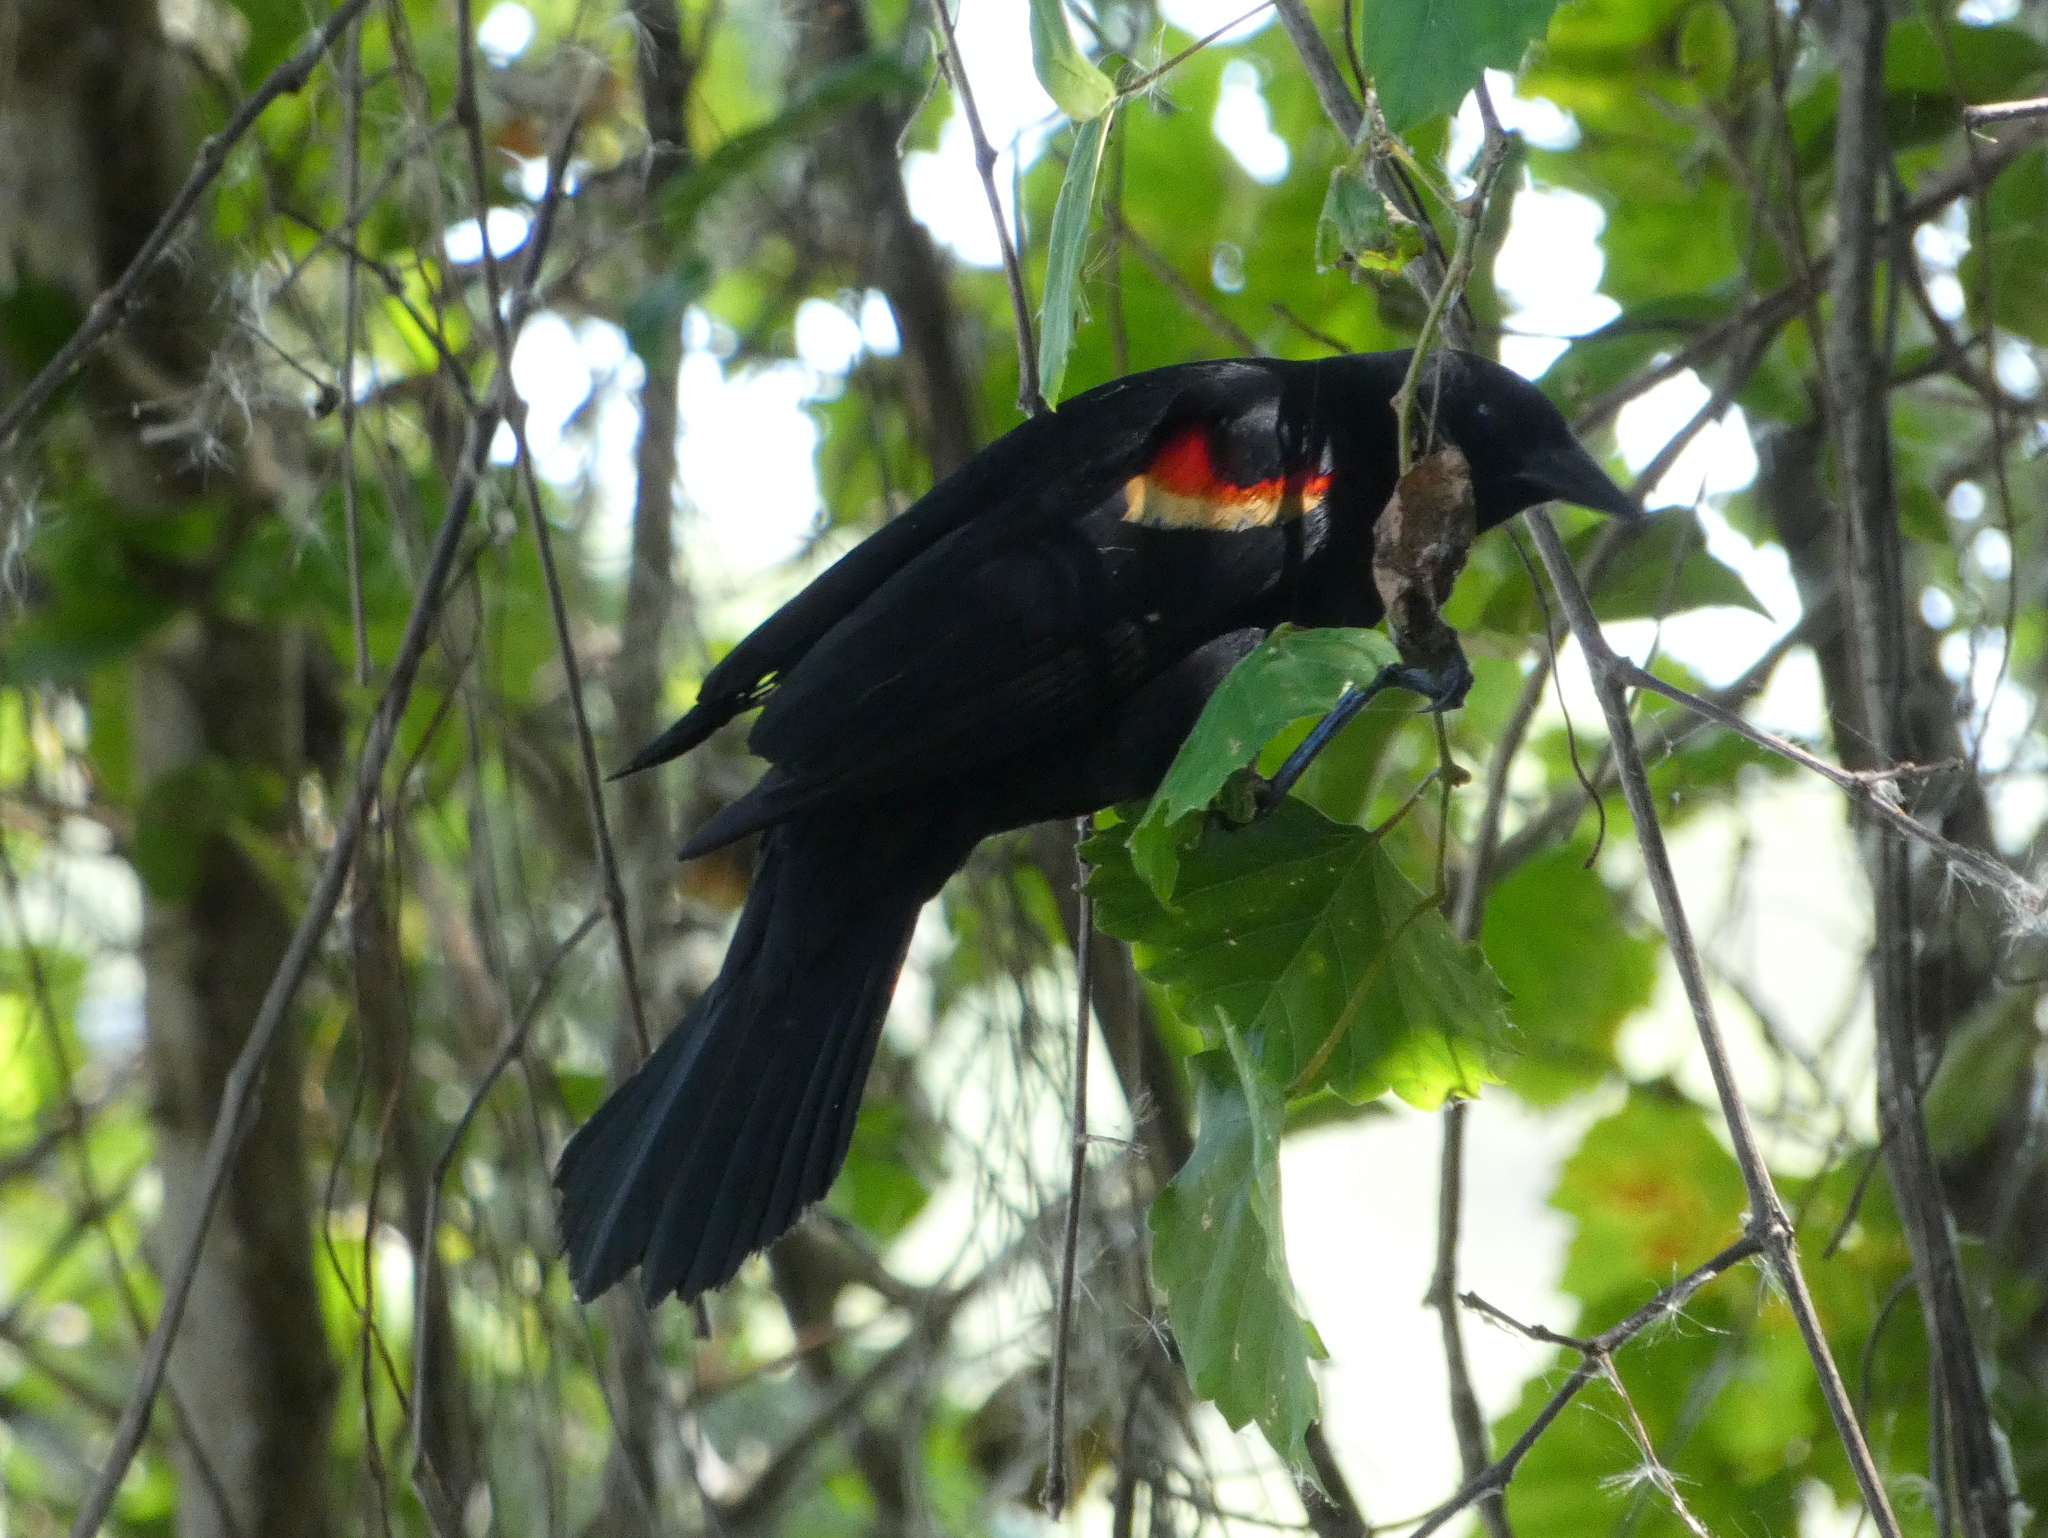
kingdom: Animalia
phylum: Chordata
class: Aves
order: Passeriformes
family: Icteridae
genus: Agelaius
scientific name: Agelaius phoeniceus
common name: Red-winged blackbird
